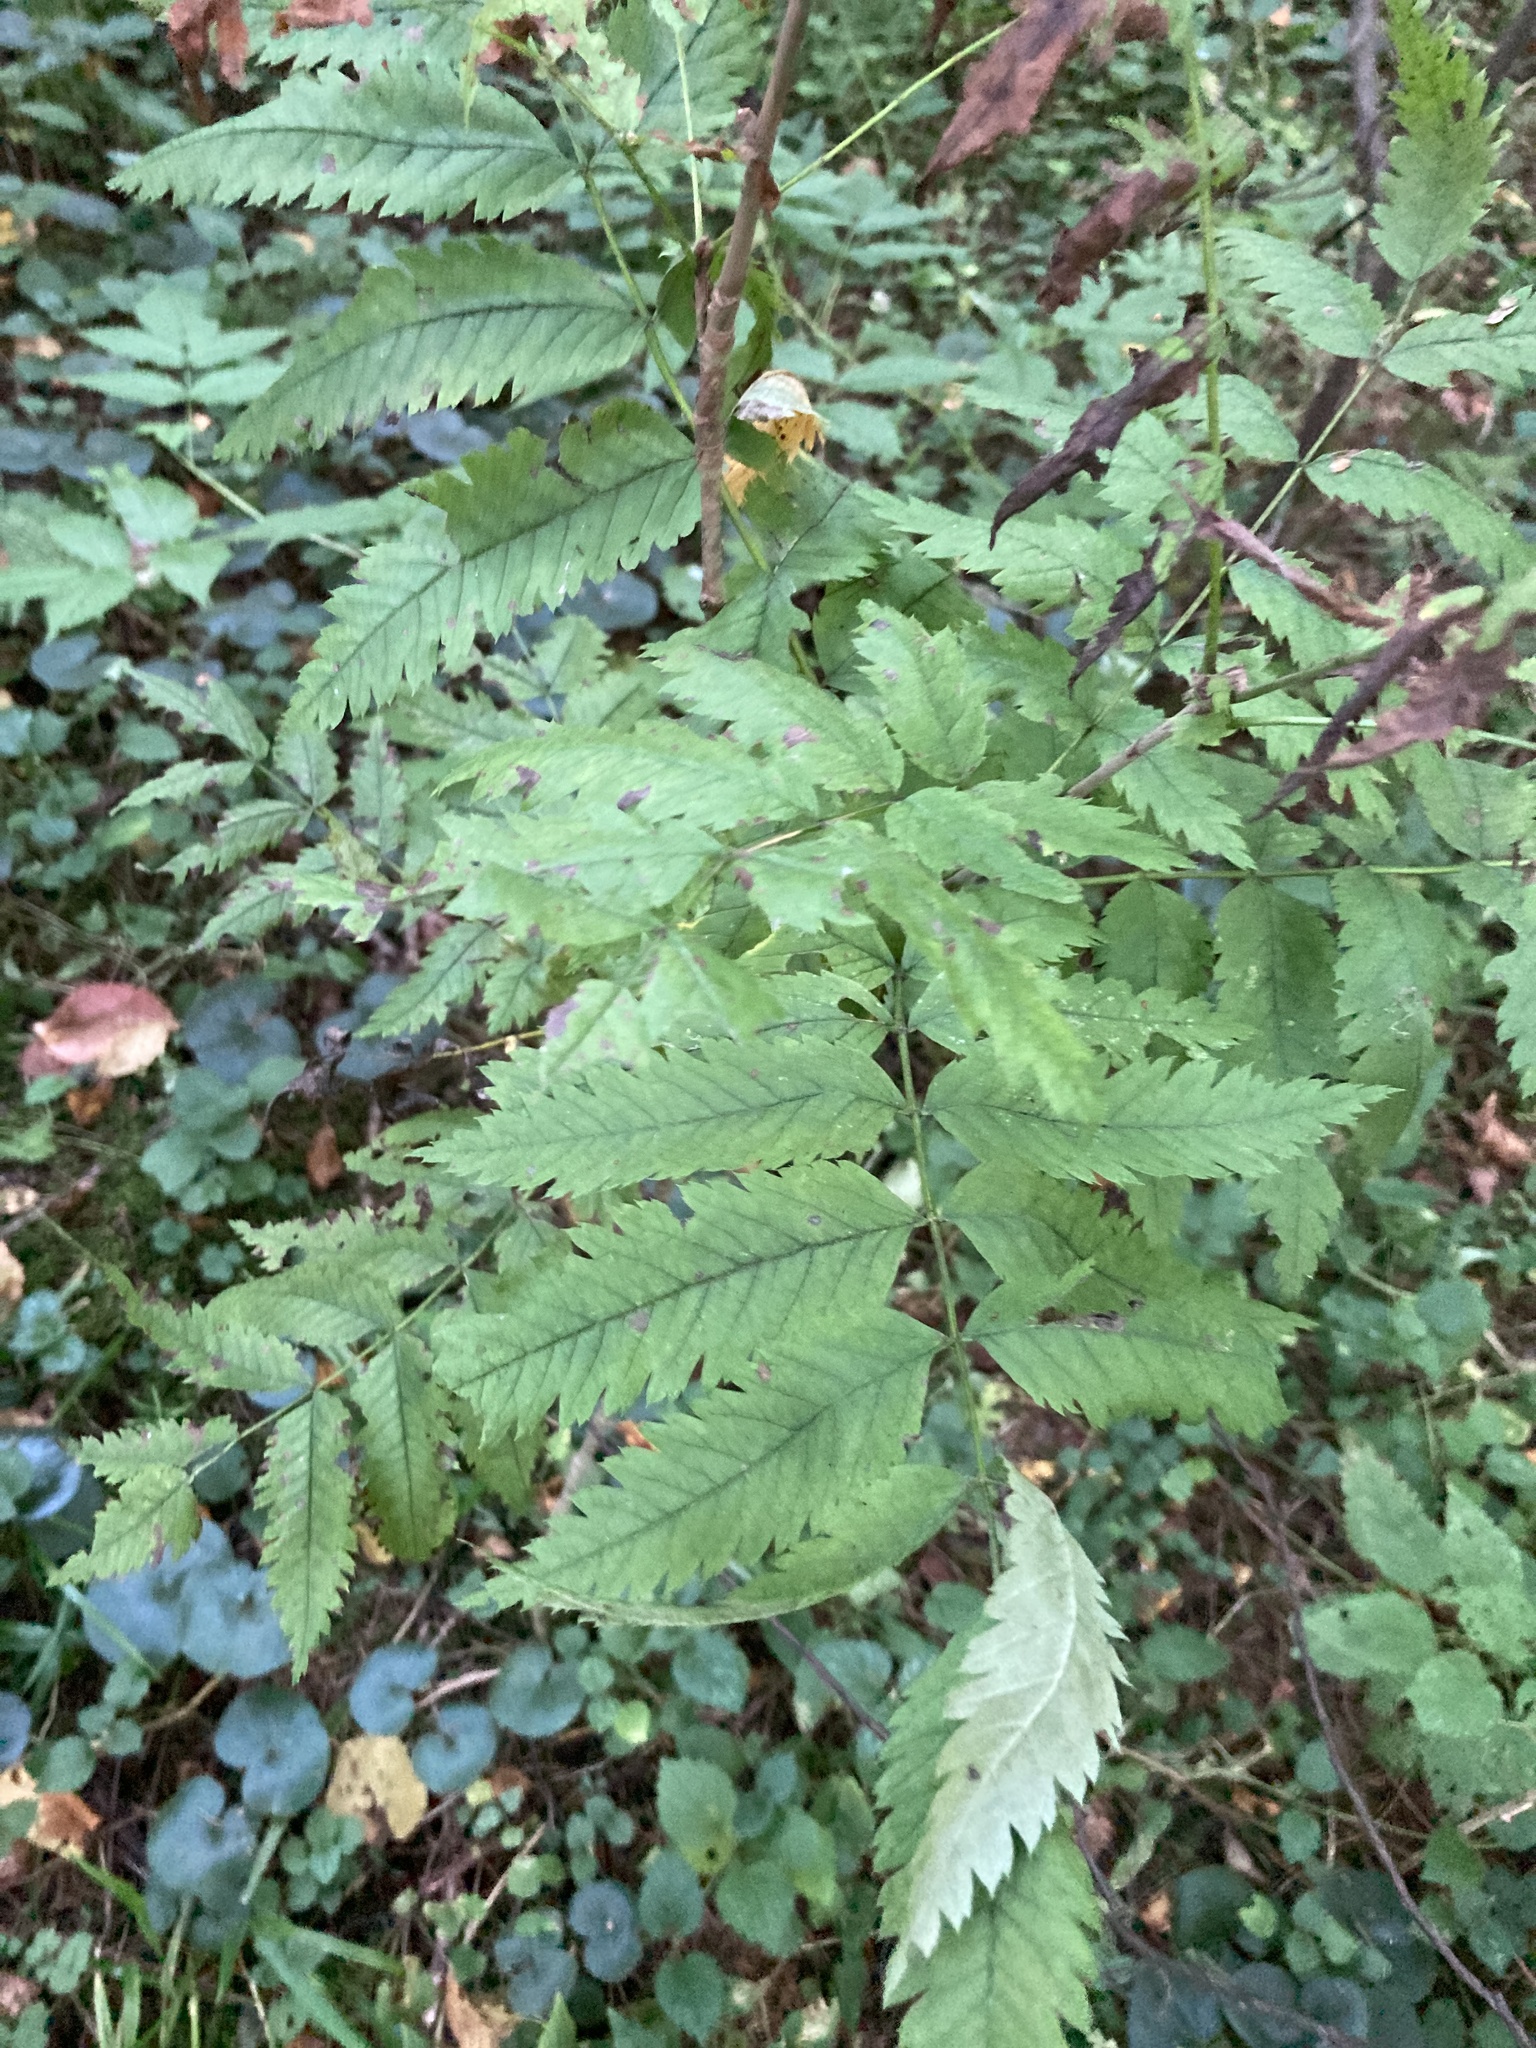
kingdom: Plantae
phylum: Tracheophyta
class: Magnoliopsida
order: Rosales
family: Rosaceae
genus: Sorbus
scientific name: Sorbus aucuparia
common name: Rowan
